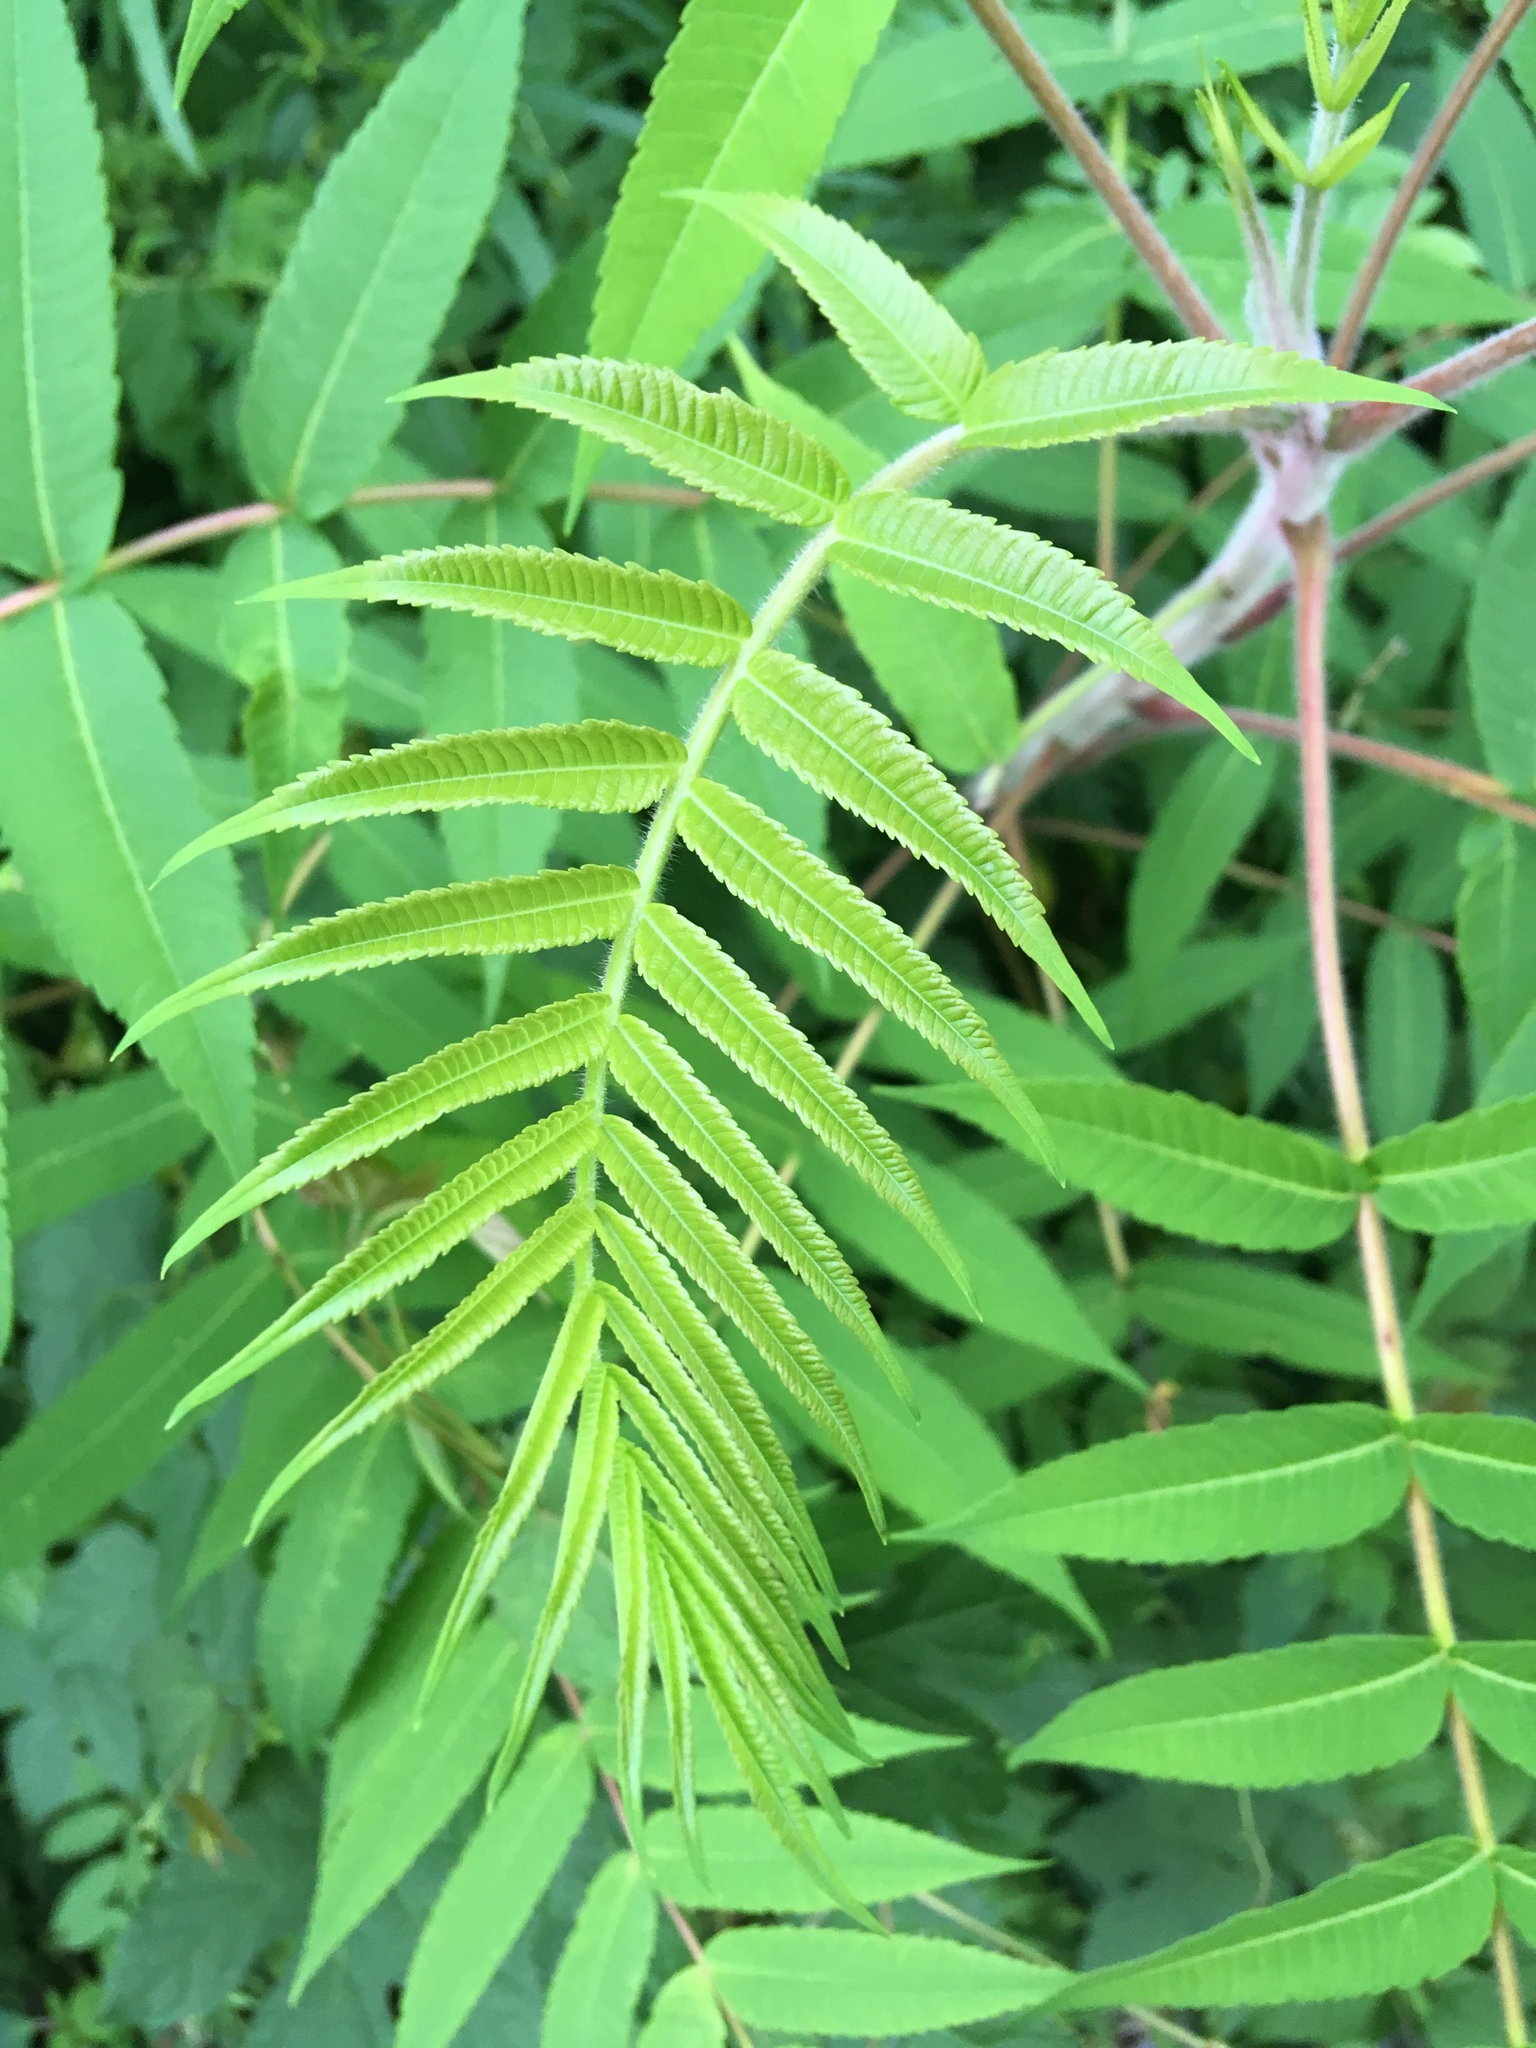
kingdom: Plantae
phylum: Tracheophyta
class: Magnoliopsida
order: Sapindales
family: Anacardiaceae
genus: Rhus
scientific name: Rhus typhina
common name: Staghorn sumac
